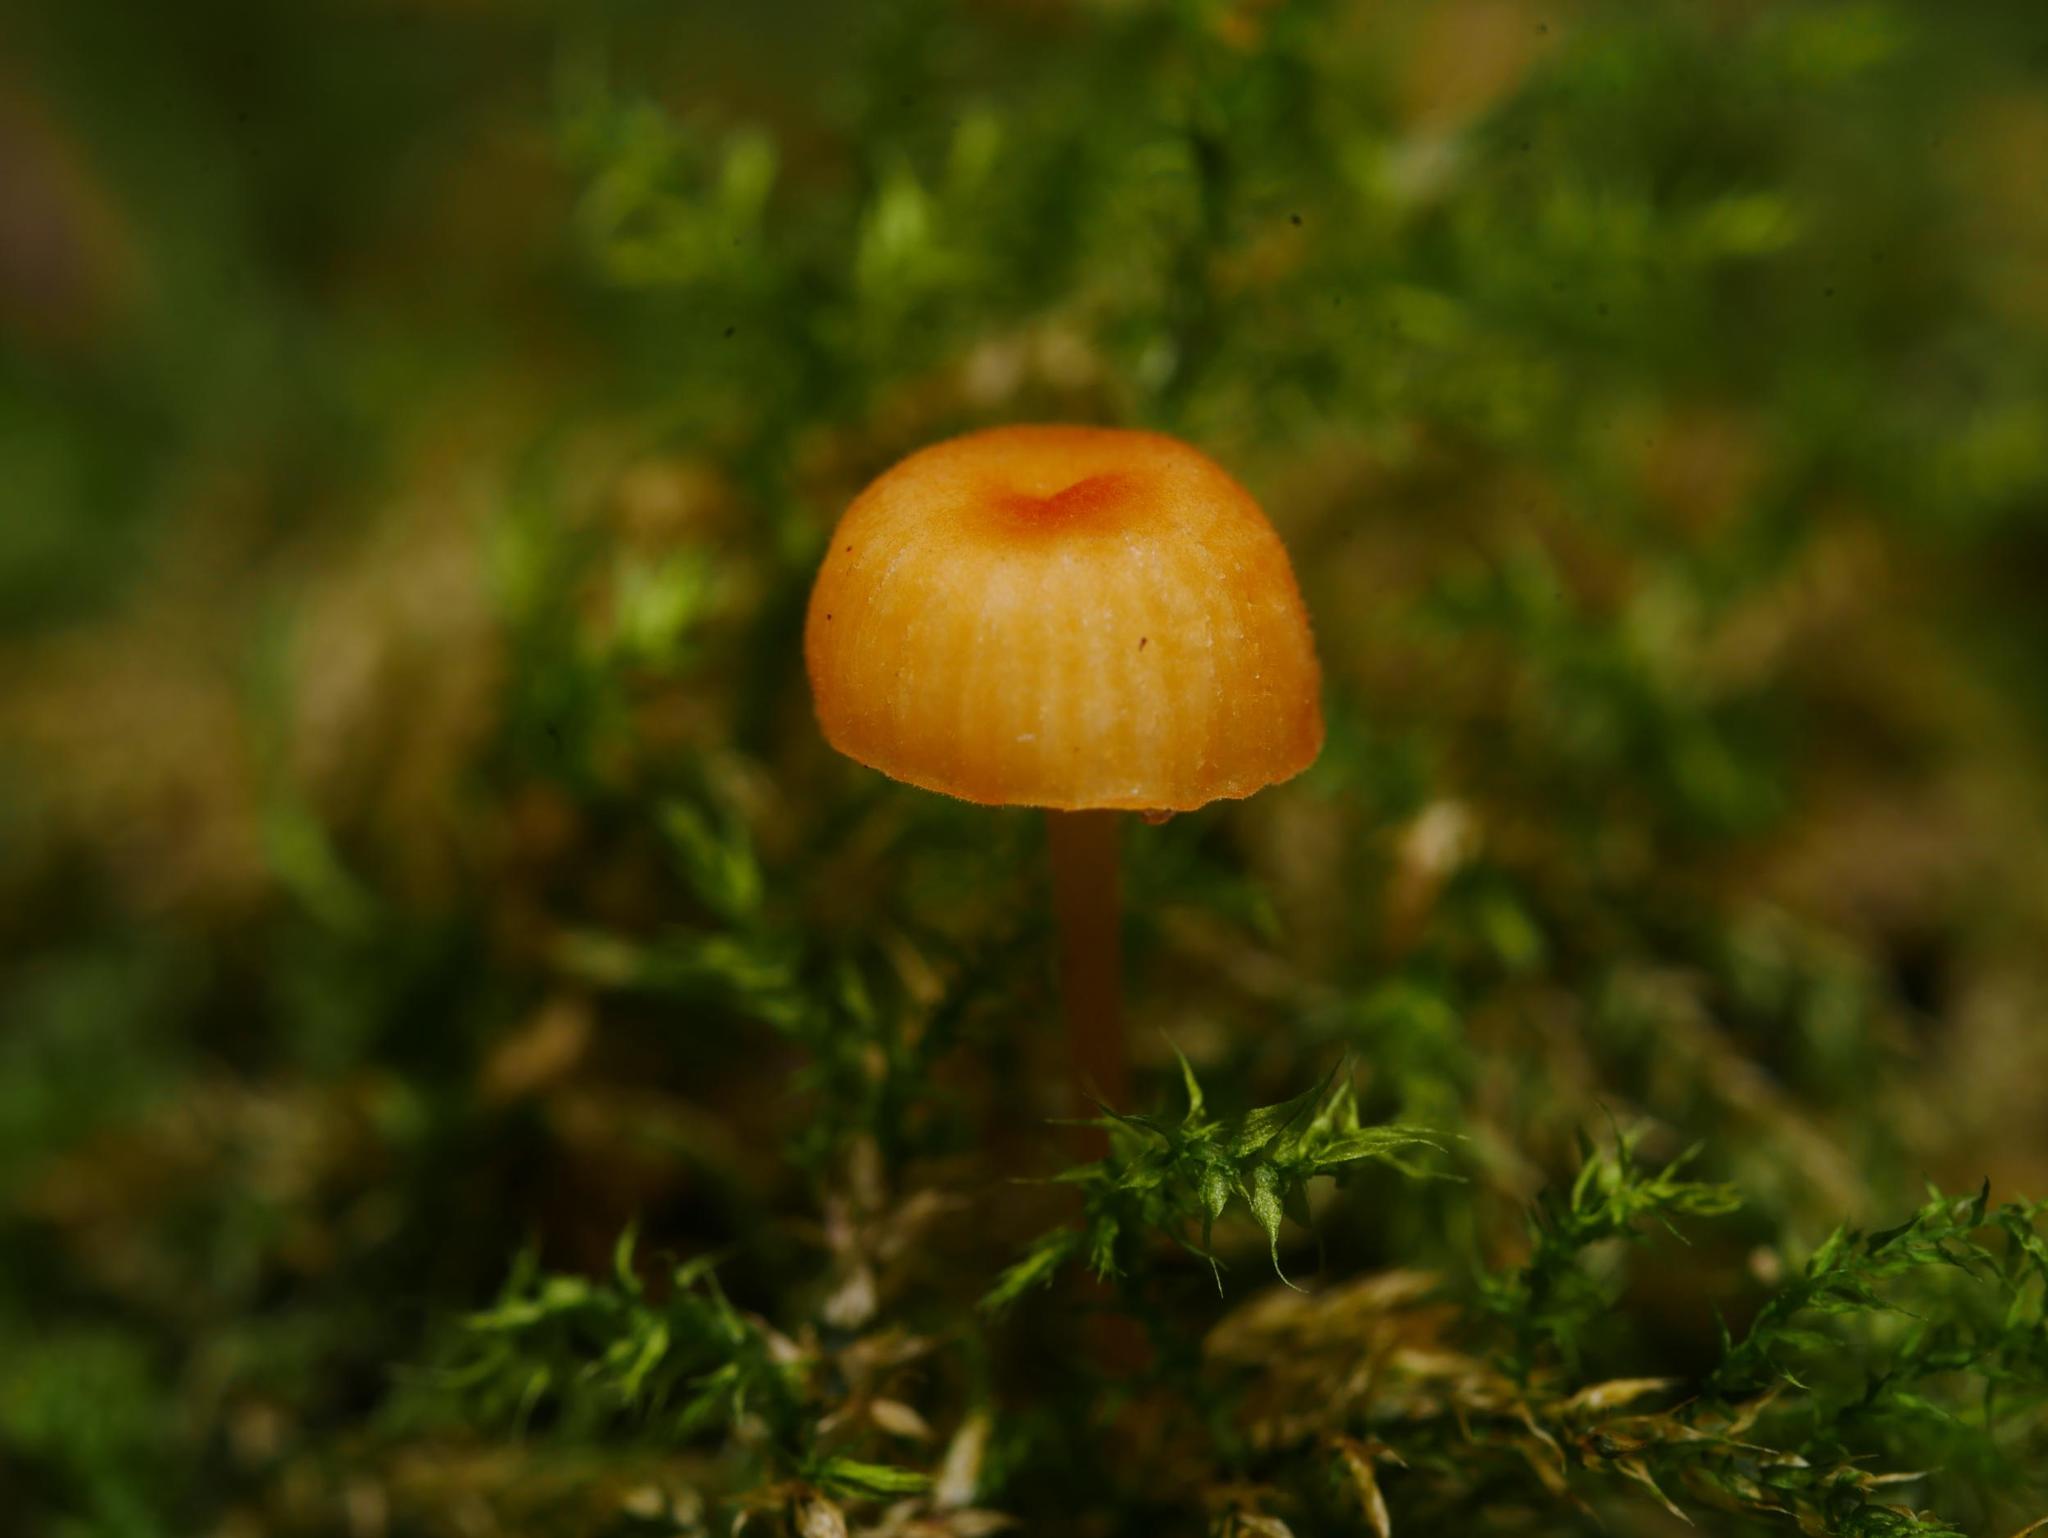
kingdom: Fungi
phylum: Basidiomycota
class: Agaricomycetes
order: Hymenochaetales
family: Rickenellaceae
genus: Rickenella
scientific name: Rickenella fibula
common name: Orange mosscap
